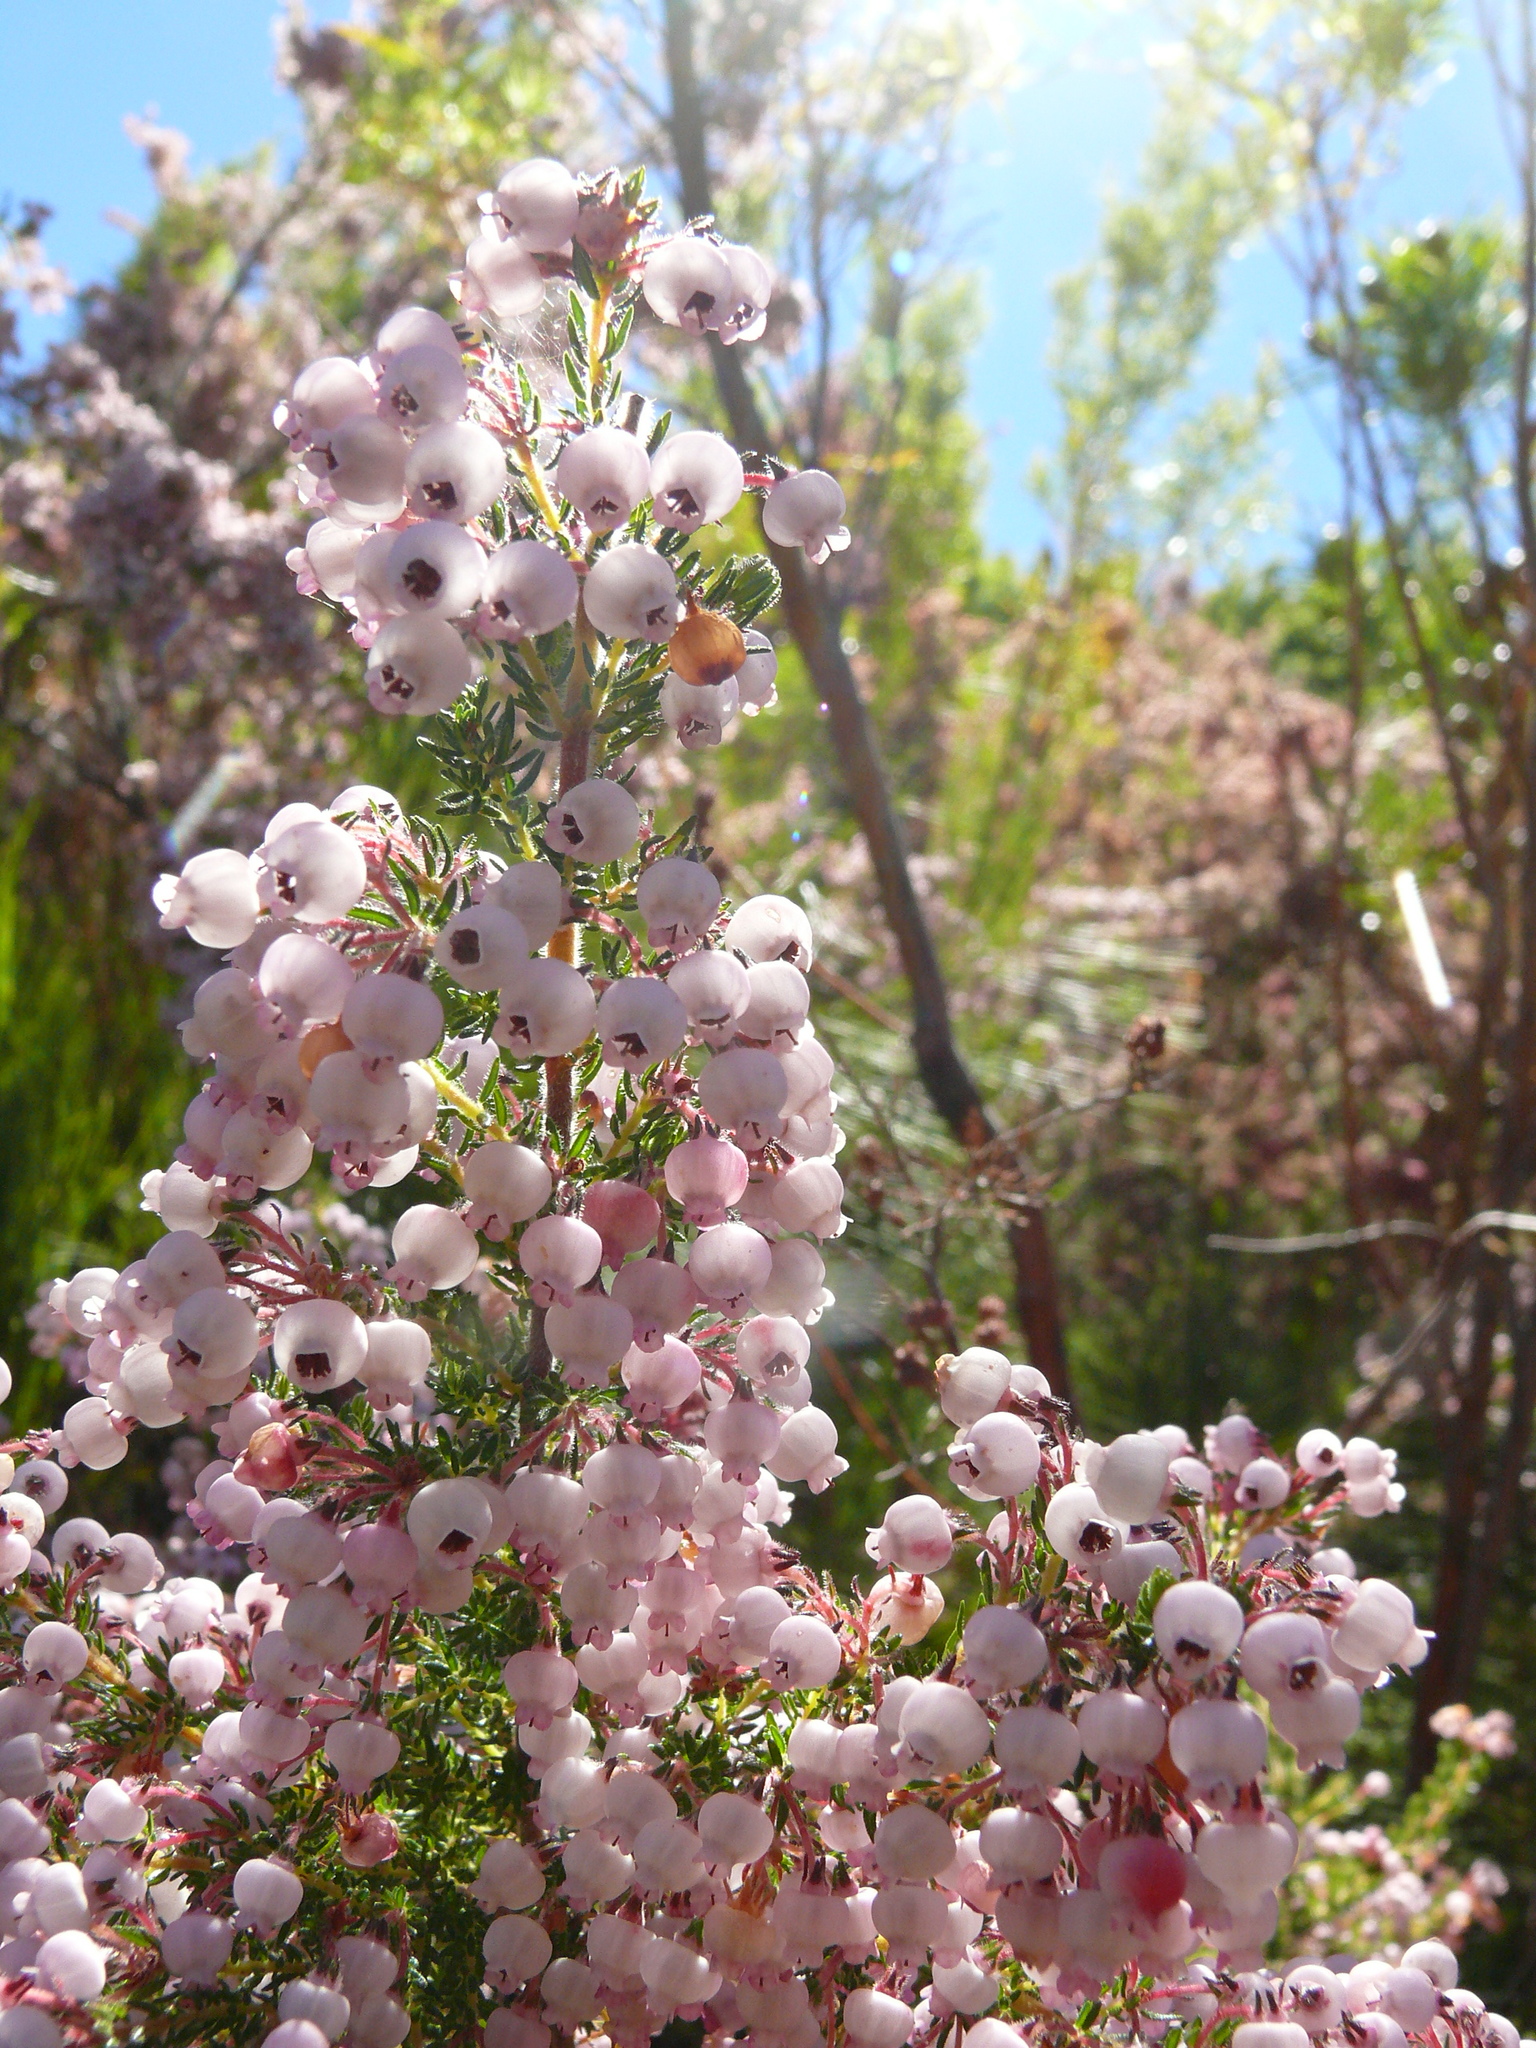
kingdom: Plantae
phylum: Tracheophyta
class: Magnoliopsida
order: Ericales
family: Ericaceae
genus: Erica
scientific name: Erica bergiana
